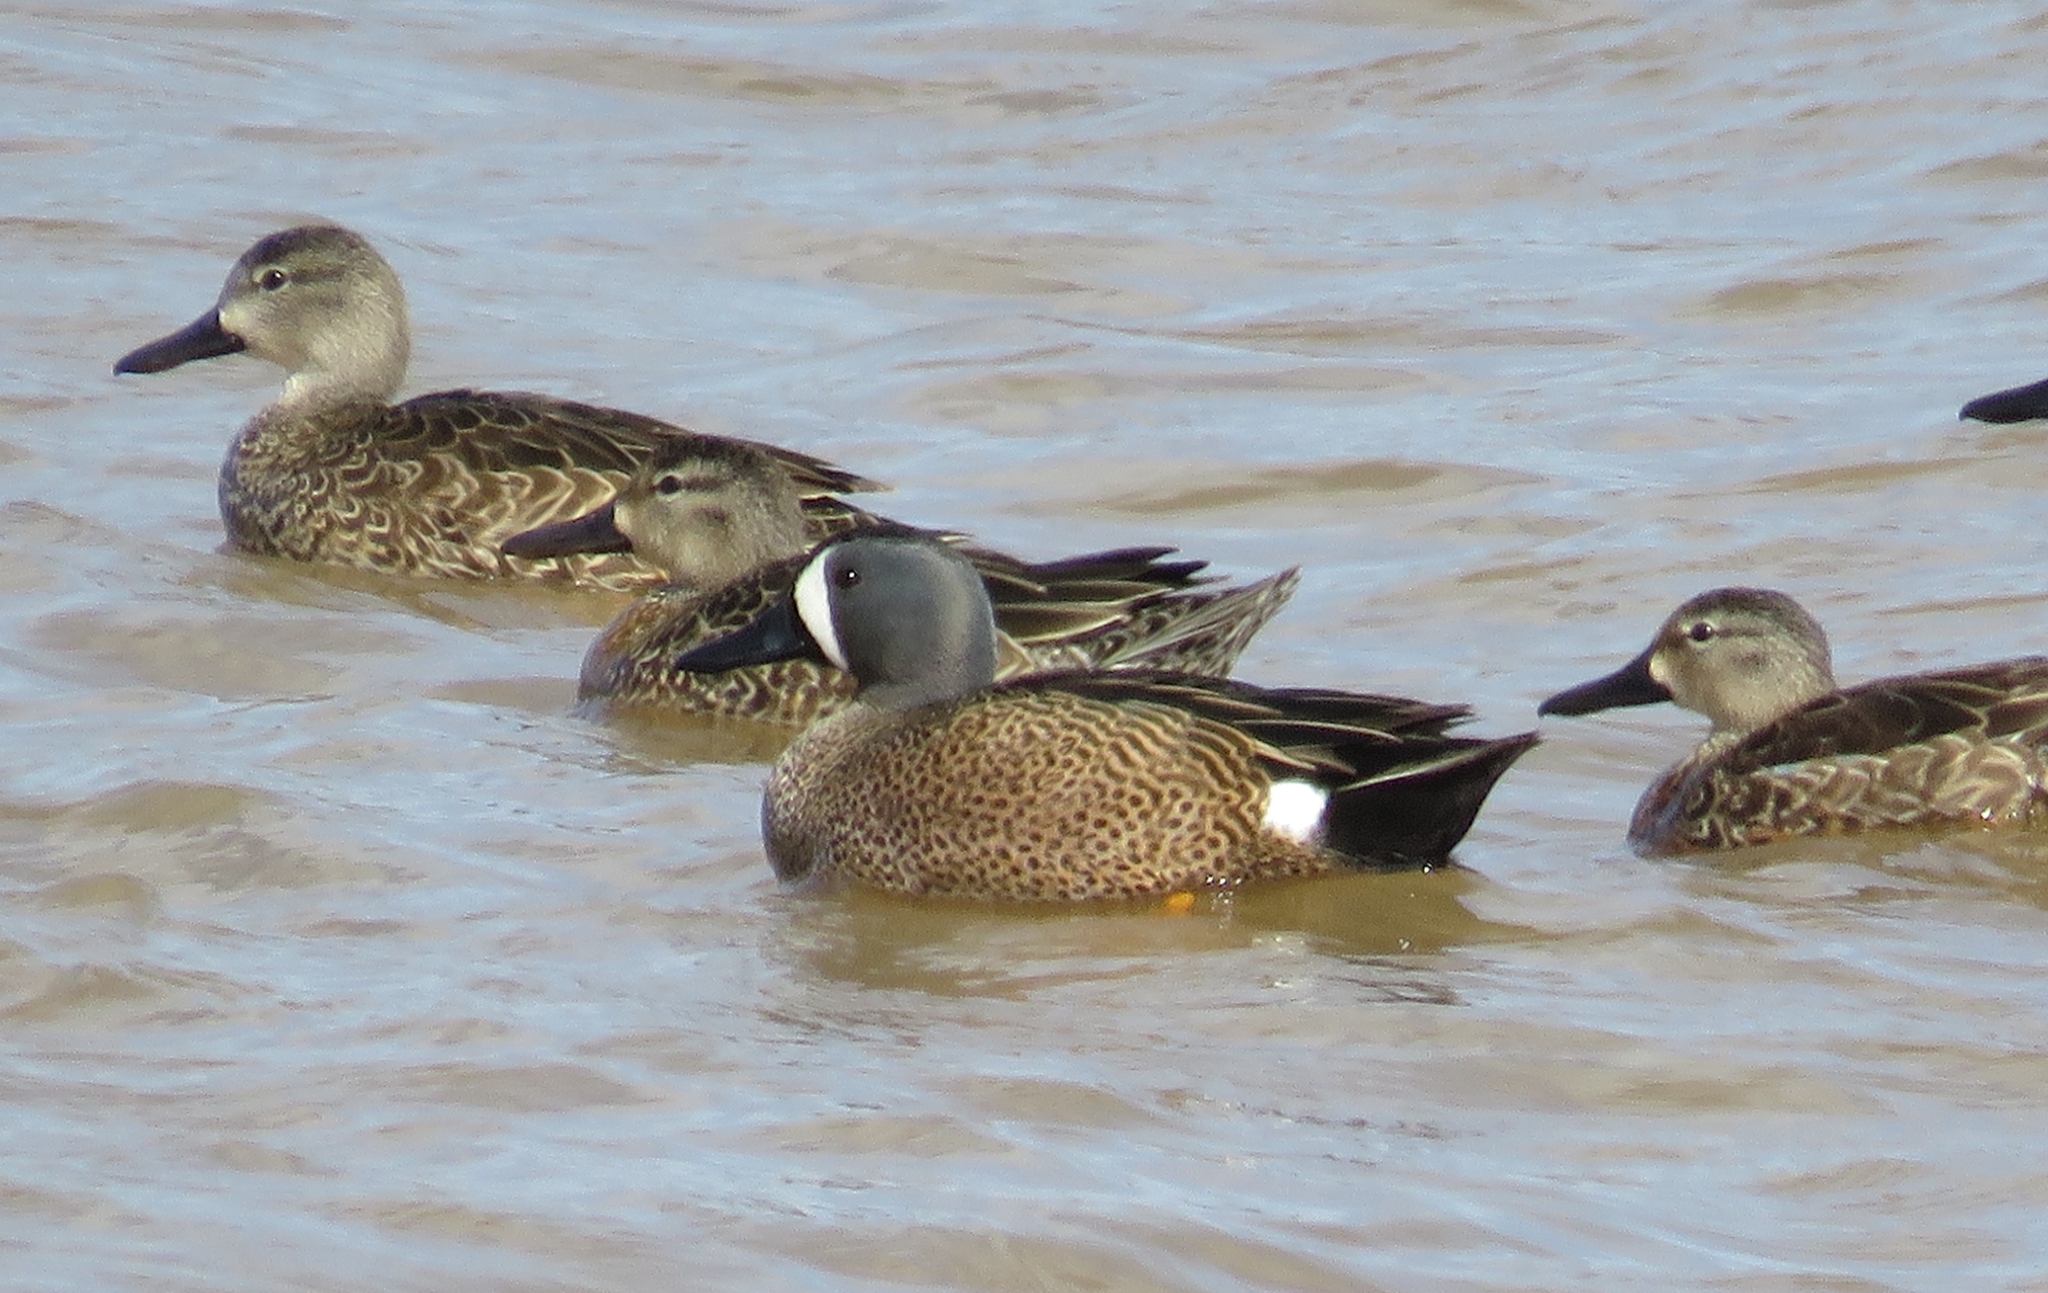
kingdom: Animalia
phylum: Chordata
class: Aves
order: Anseriformes
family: Anatidae
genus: Spatula
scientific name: Spatula discors
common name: Blue-winged teal
